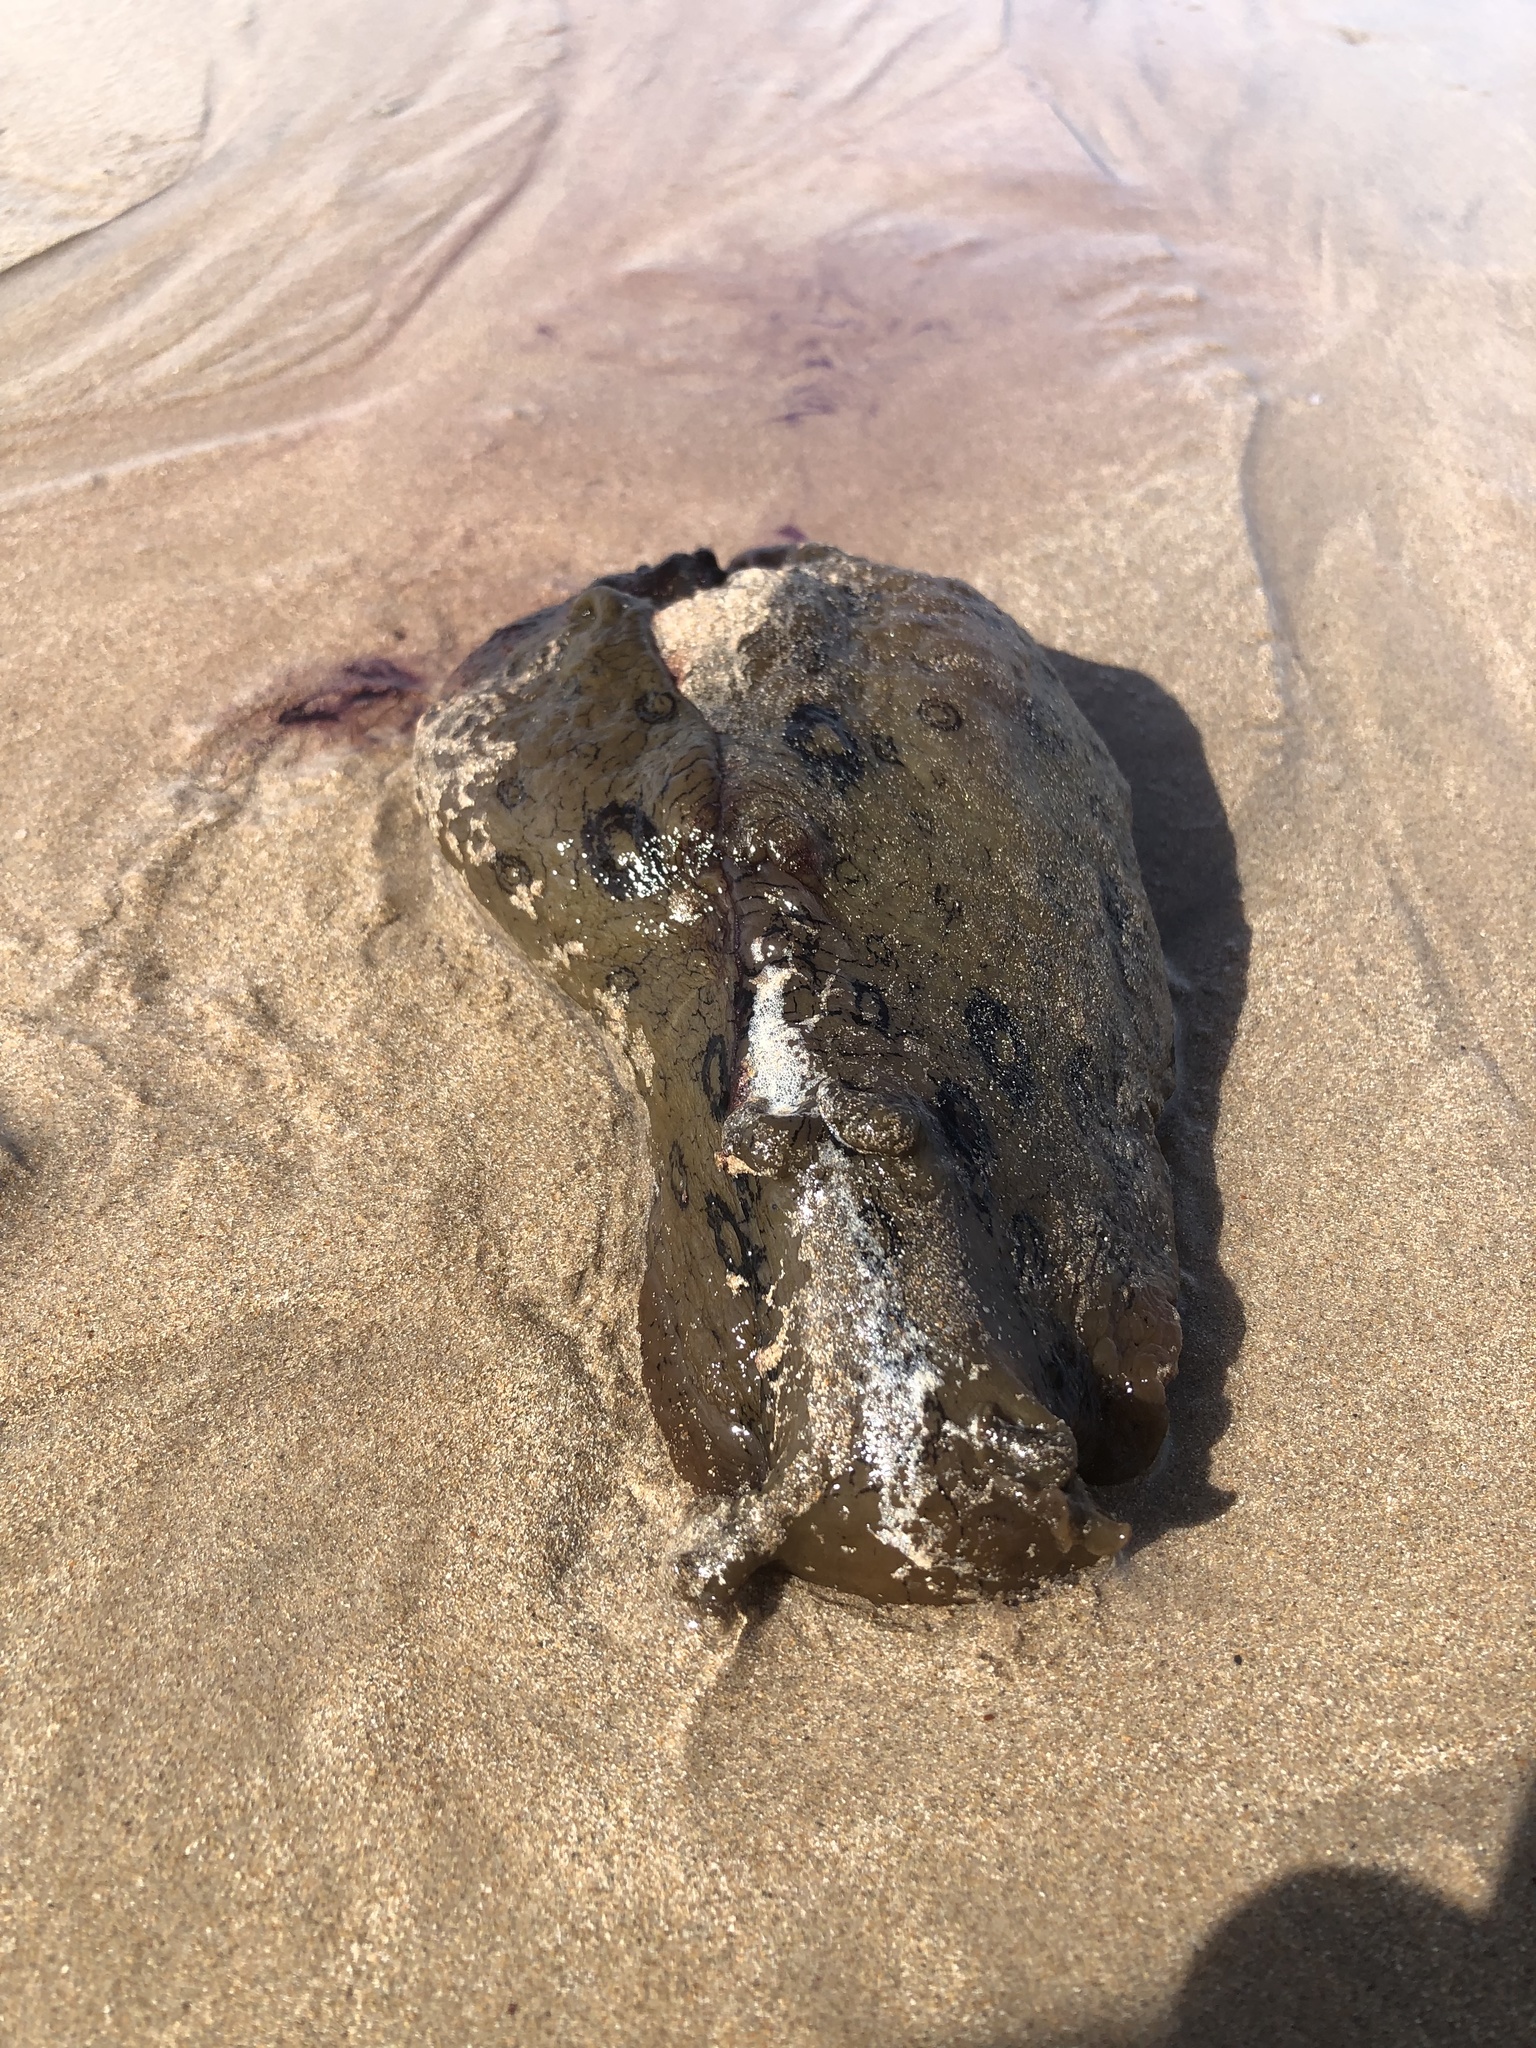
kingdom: Animalia
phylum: Mollusca
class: Gastropoda
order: Aplysiida
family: Aplysiidae
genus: Aplysia
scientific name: Aplysia dactylomela
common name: Large-spotted sea hare
